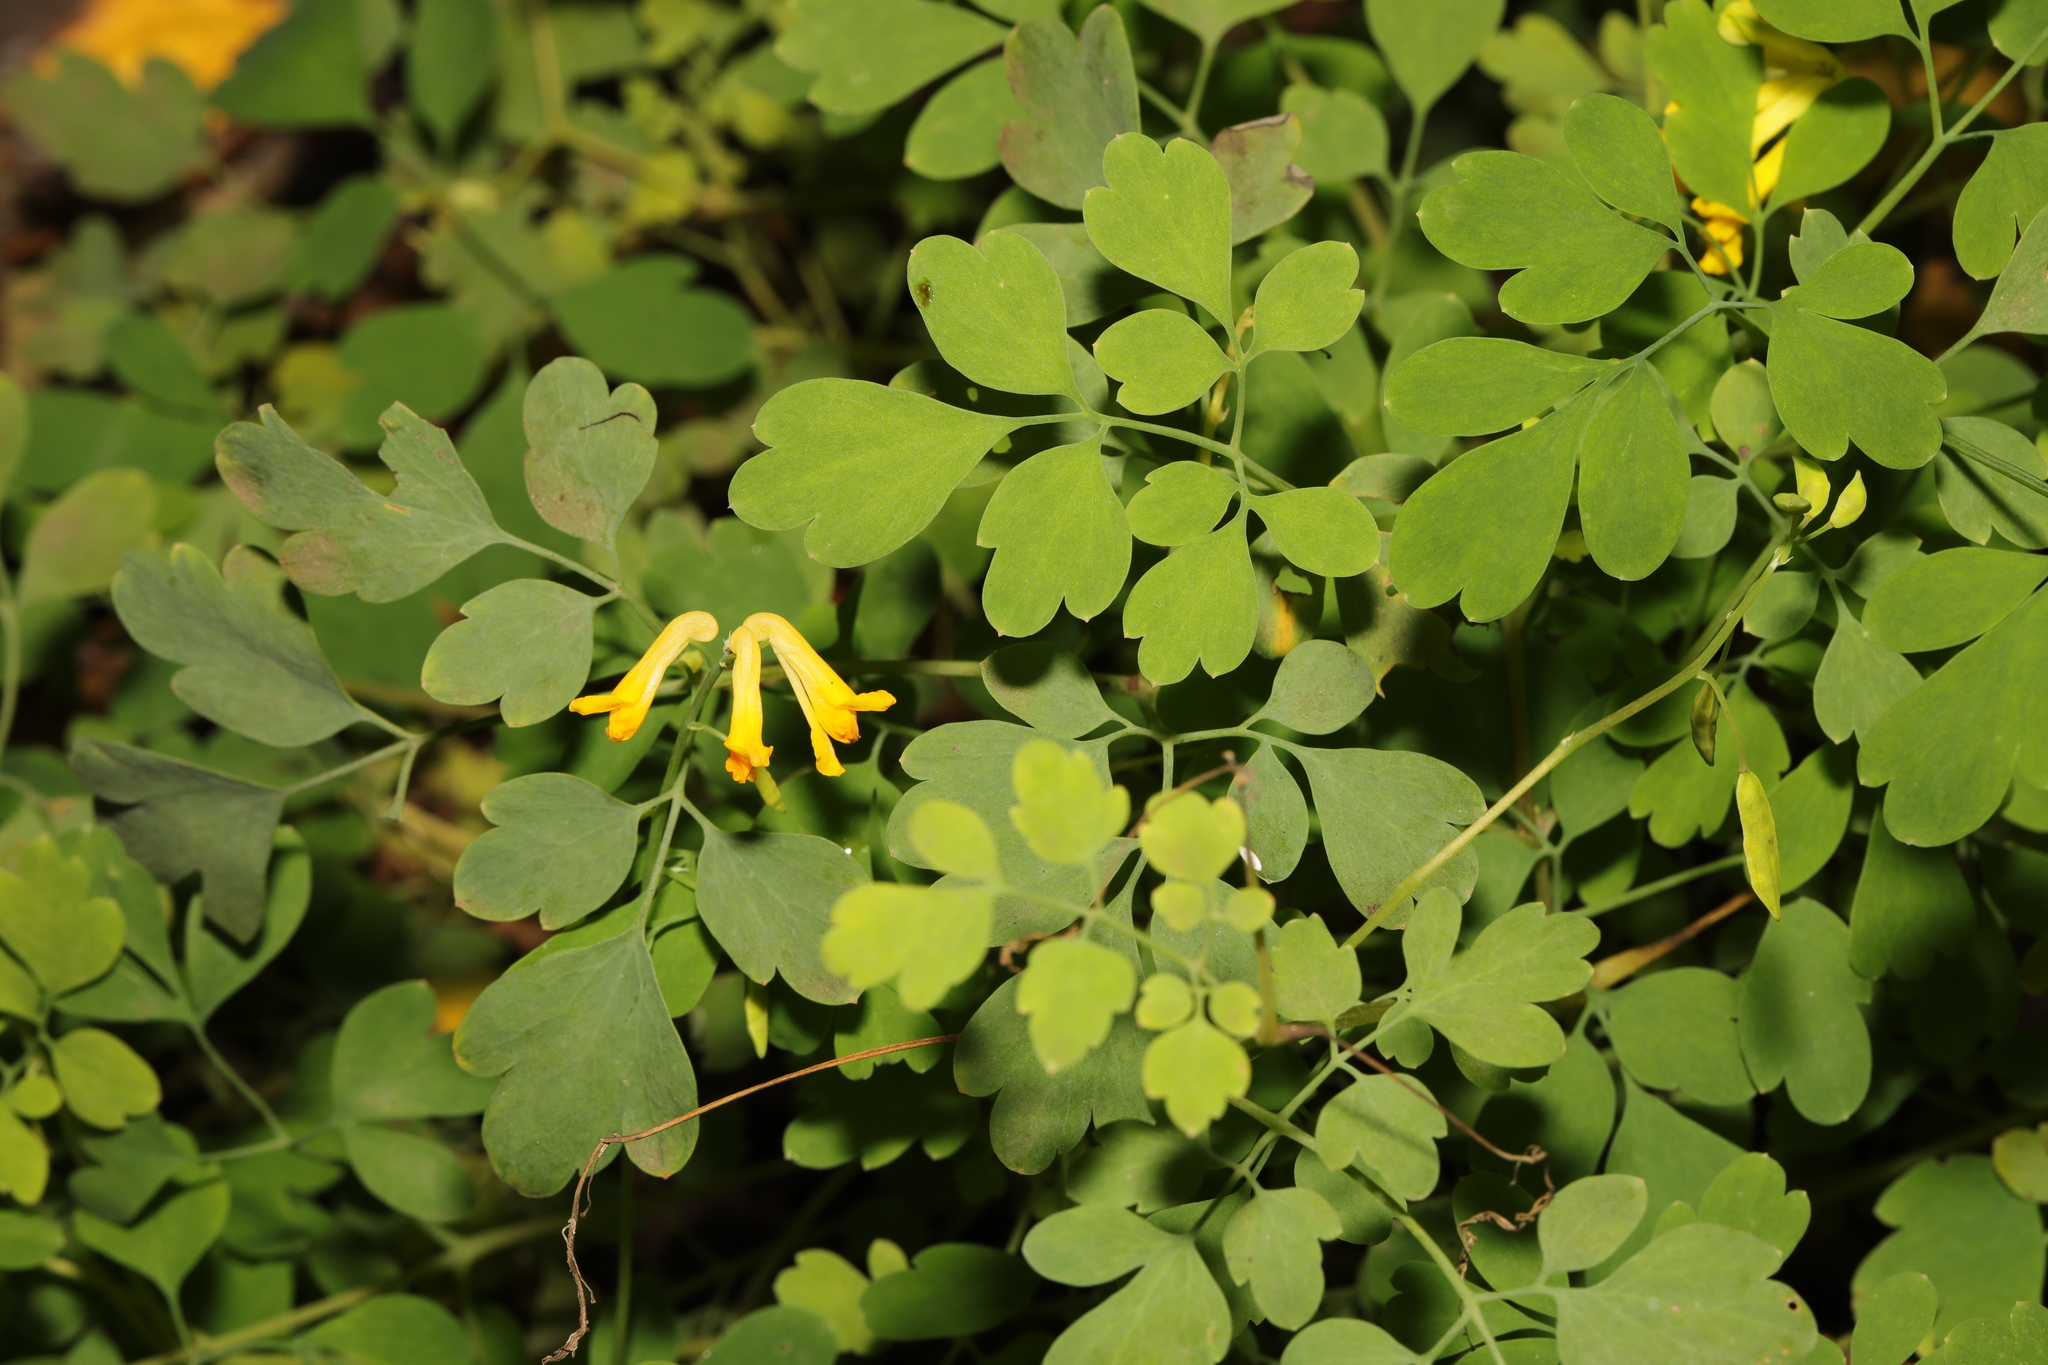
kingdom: Plantae
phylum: Tracheophyta
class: Magnoliopsida
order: Ranunculales
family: Papaveraceae
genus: Pseudofumaria
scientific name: Pseudofumaria lutea
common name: Yellow corydalis
